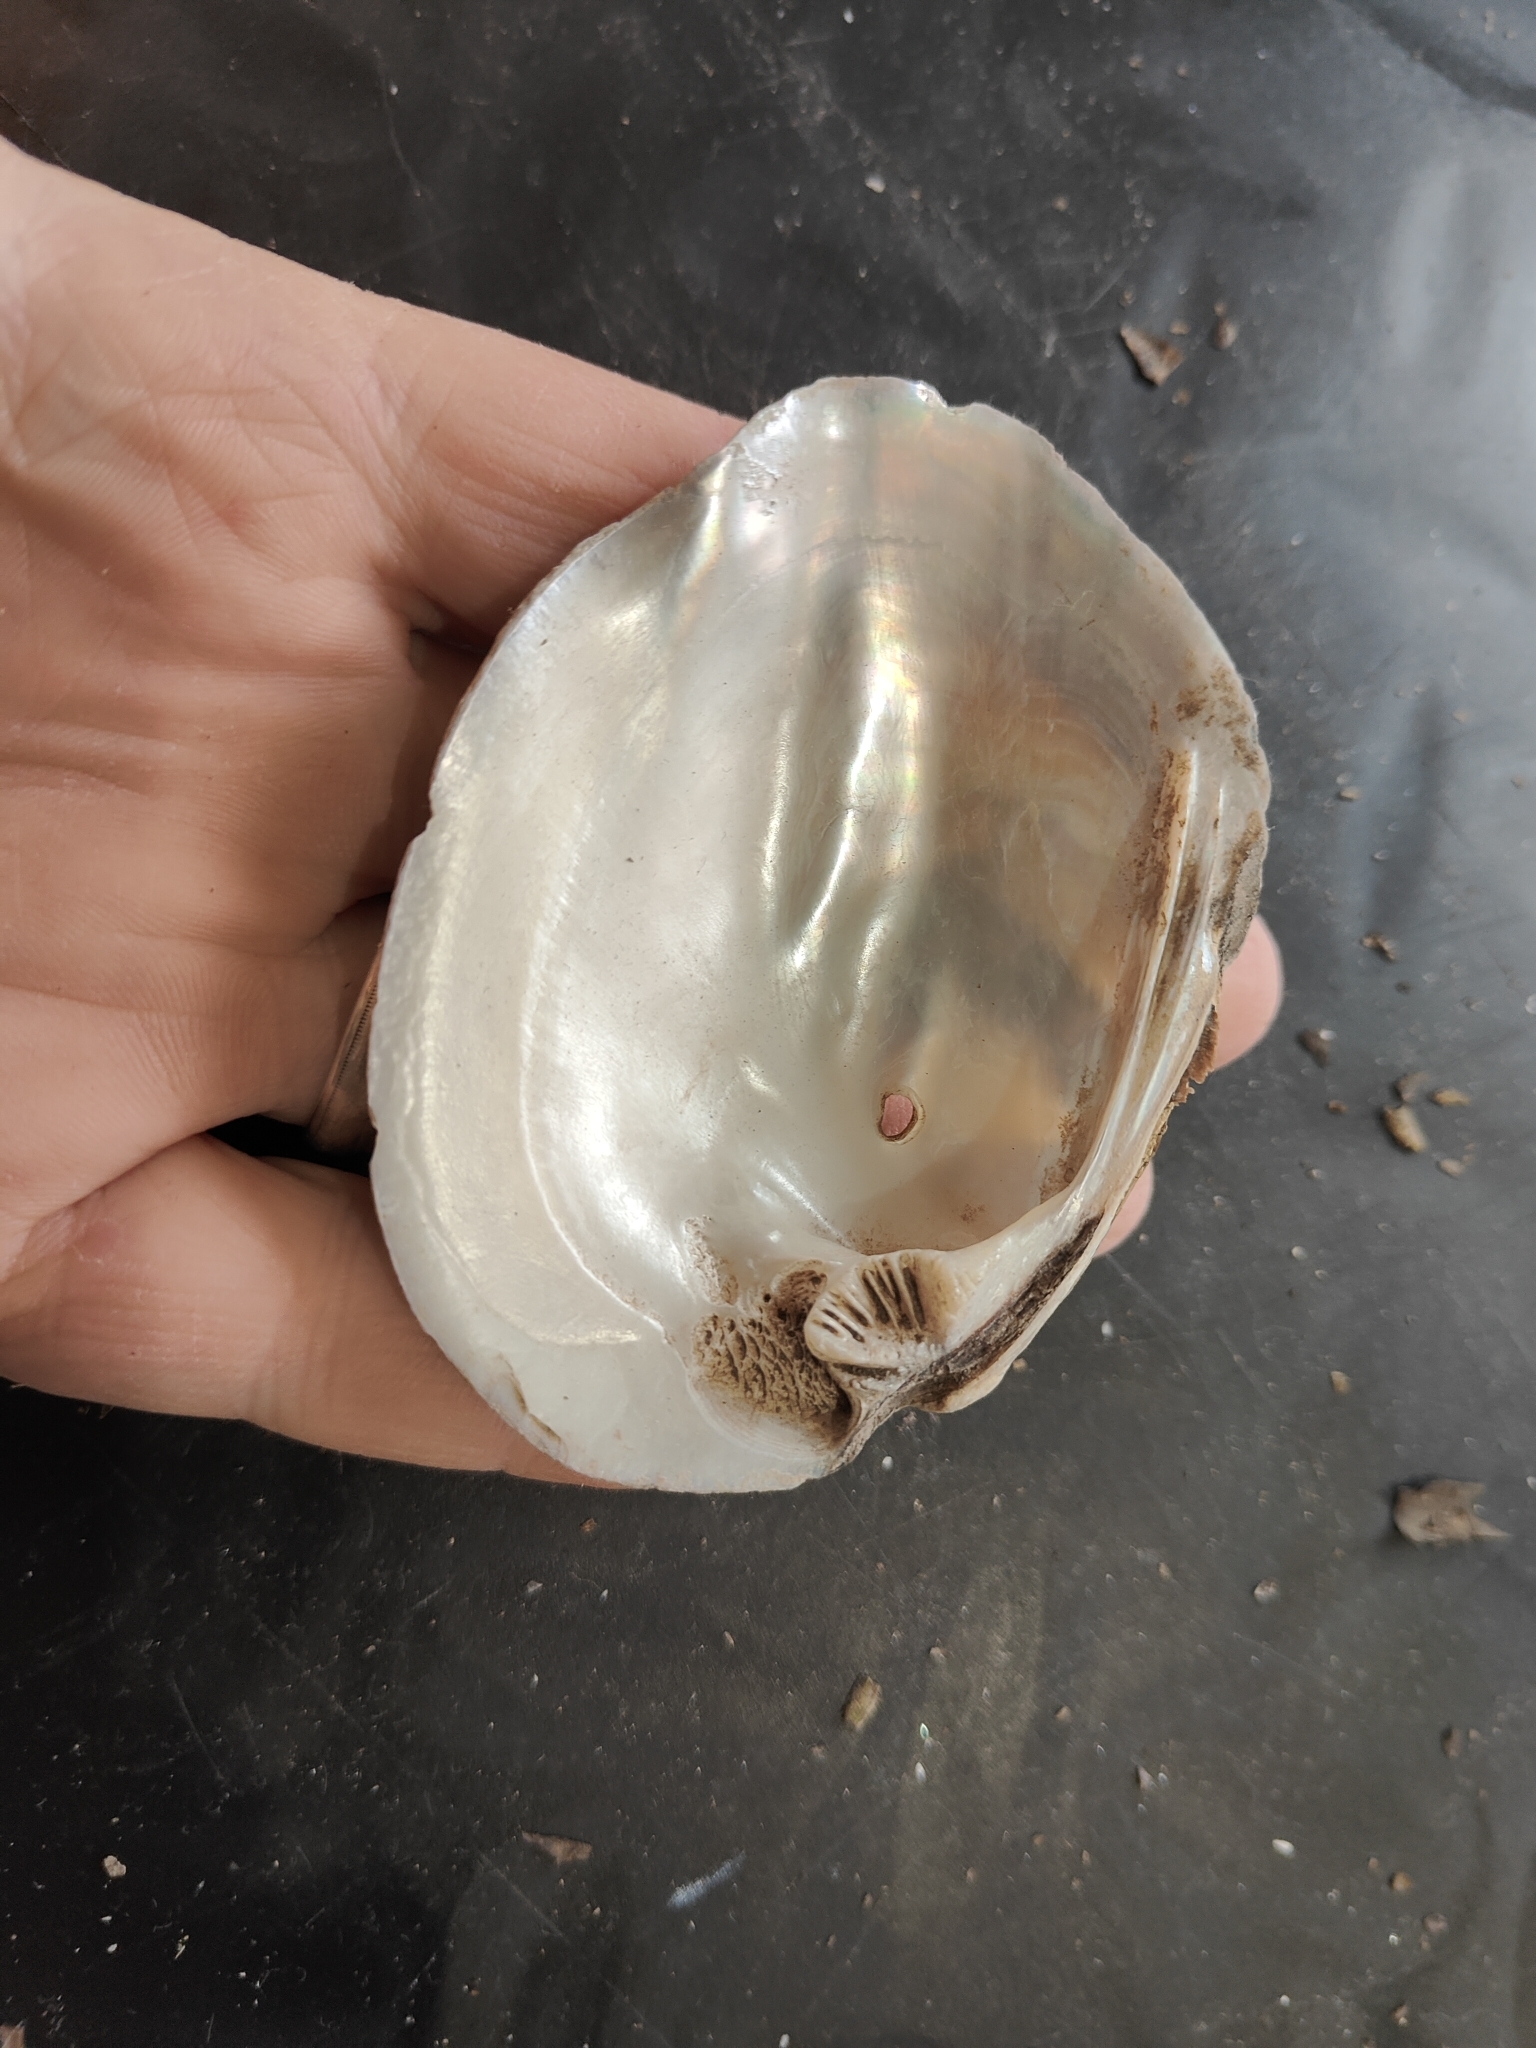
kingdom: Animalia
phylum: Mollusca
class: Bivalvia
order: Unionida
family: Unionidae
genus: Amblema
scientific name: Amblema plicata
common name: Threeridge
